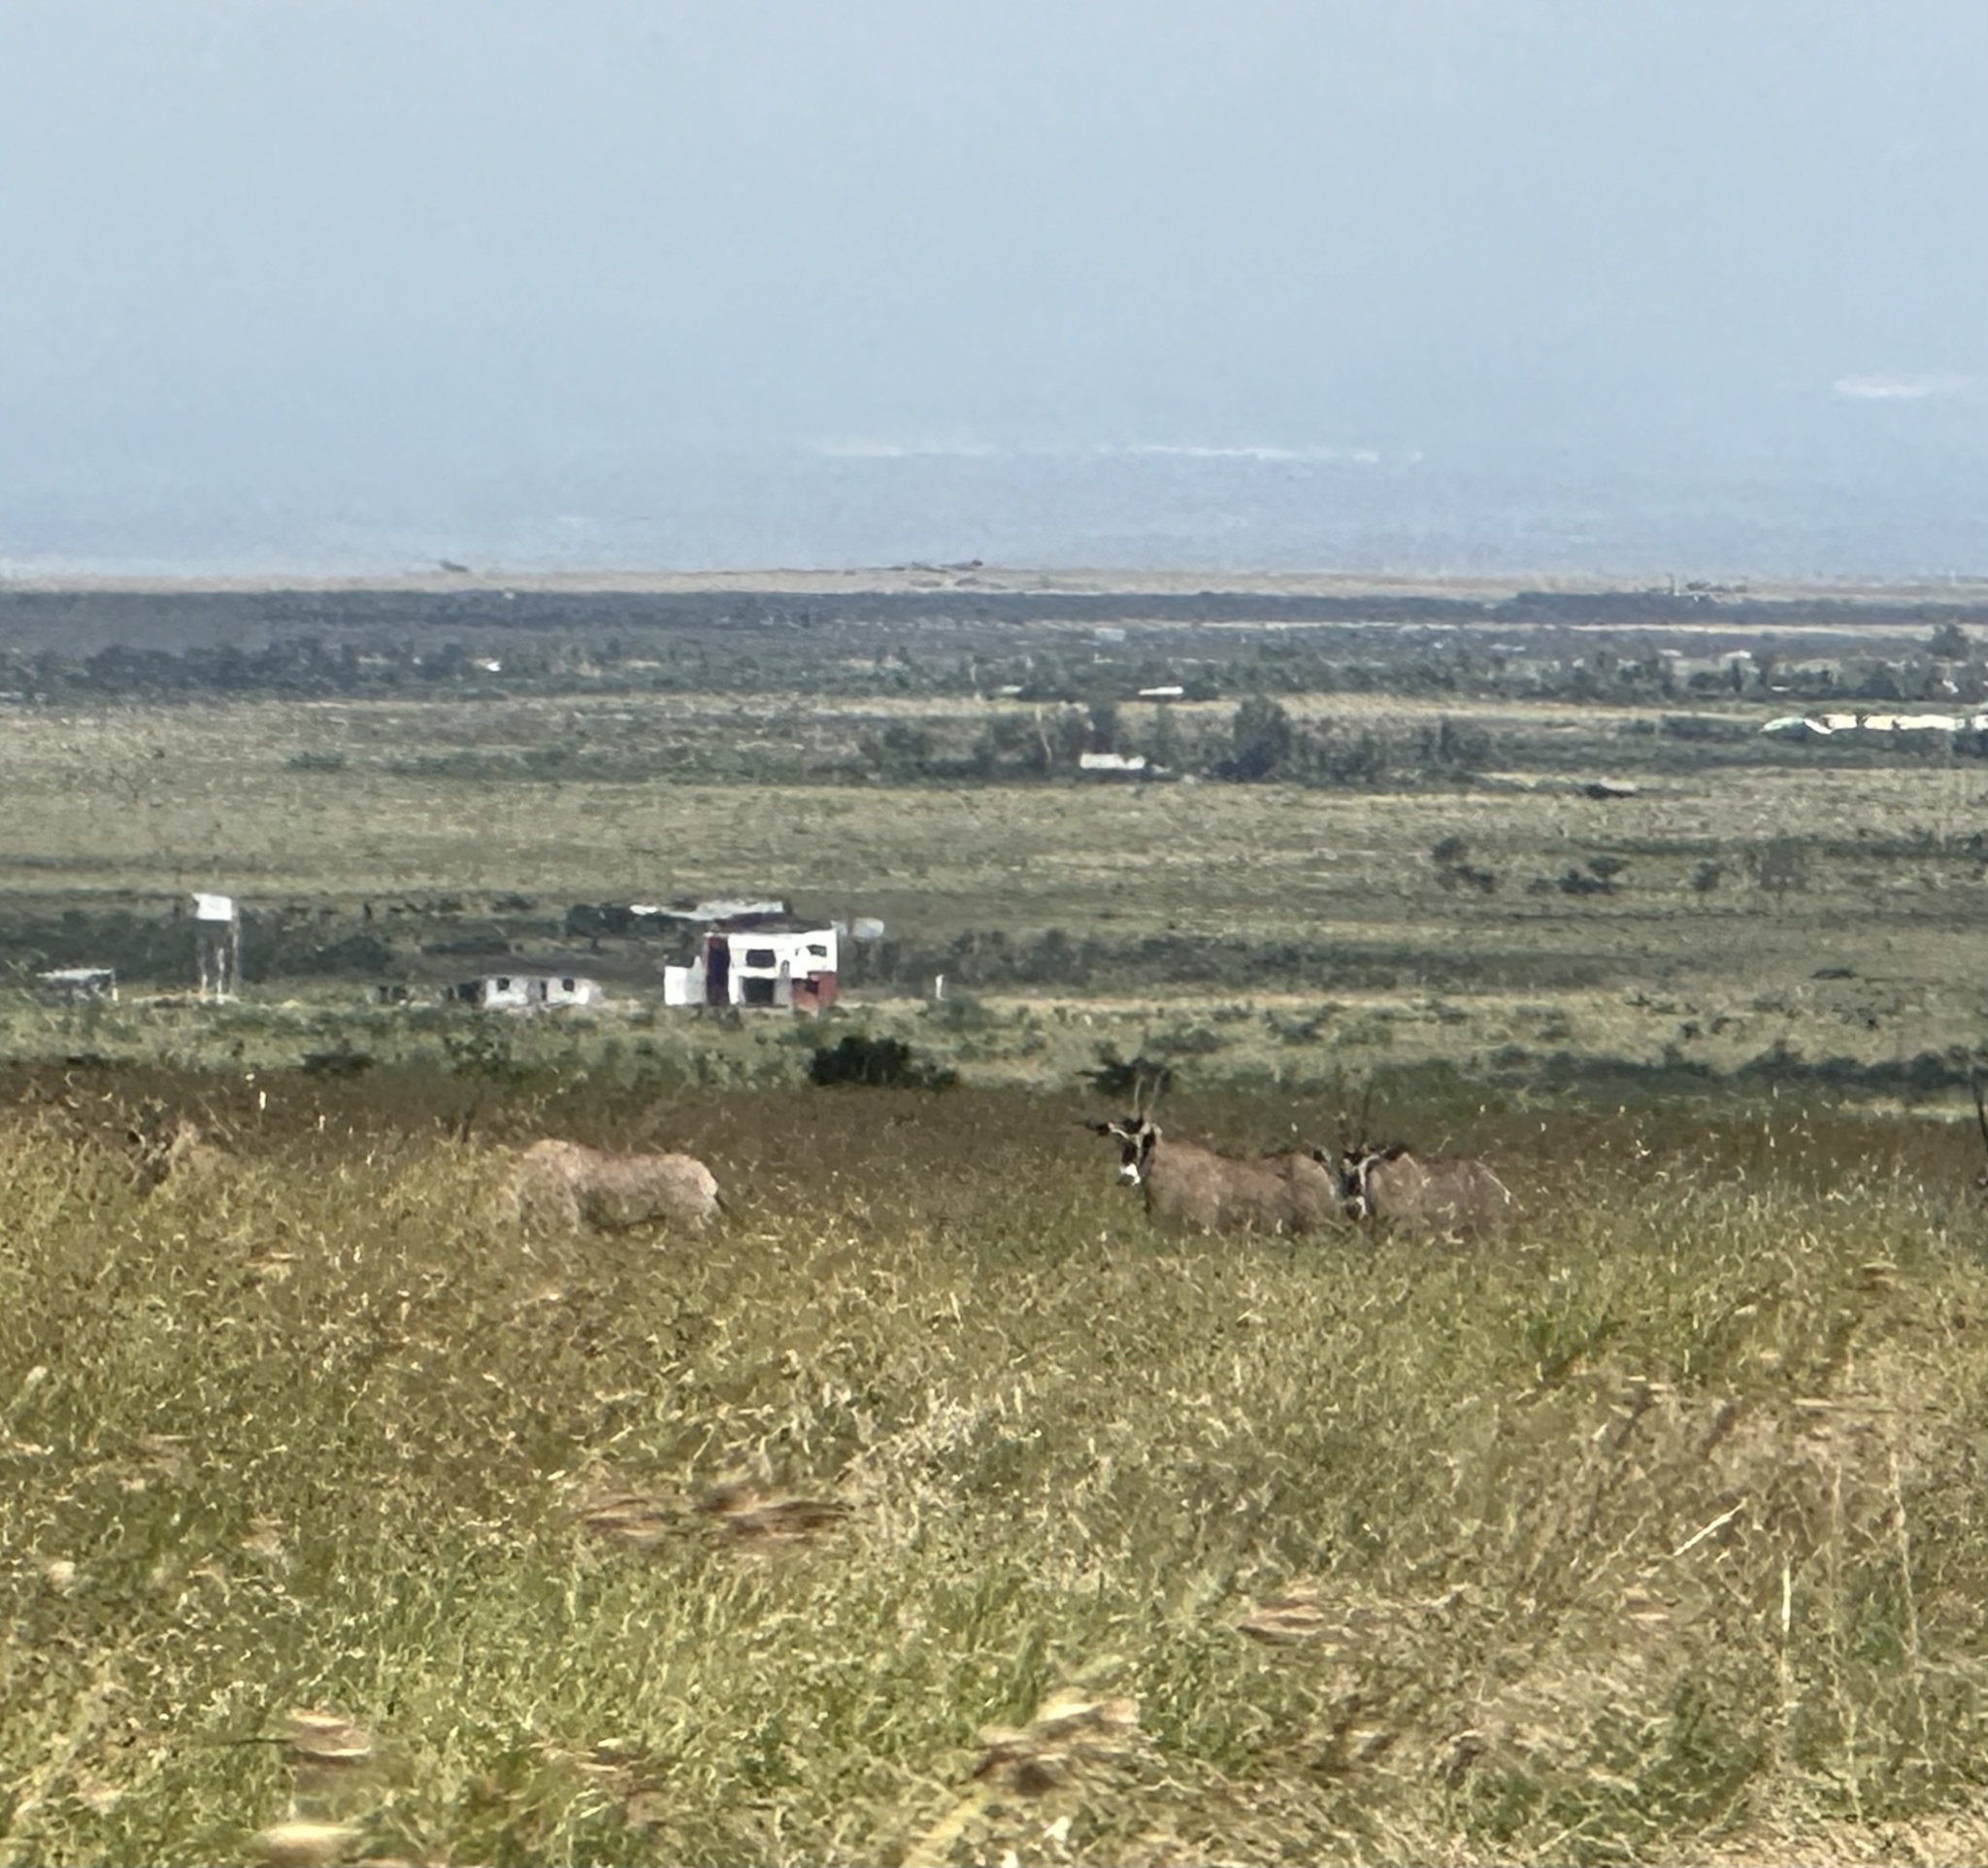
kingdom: Animalia
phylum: Chordata
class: Mammalia
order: Artiodactyla
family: Bovidae
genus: Oryx
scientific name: Oryx beisa
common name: Beisa
